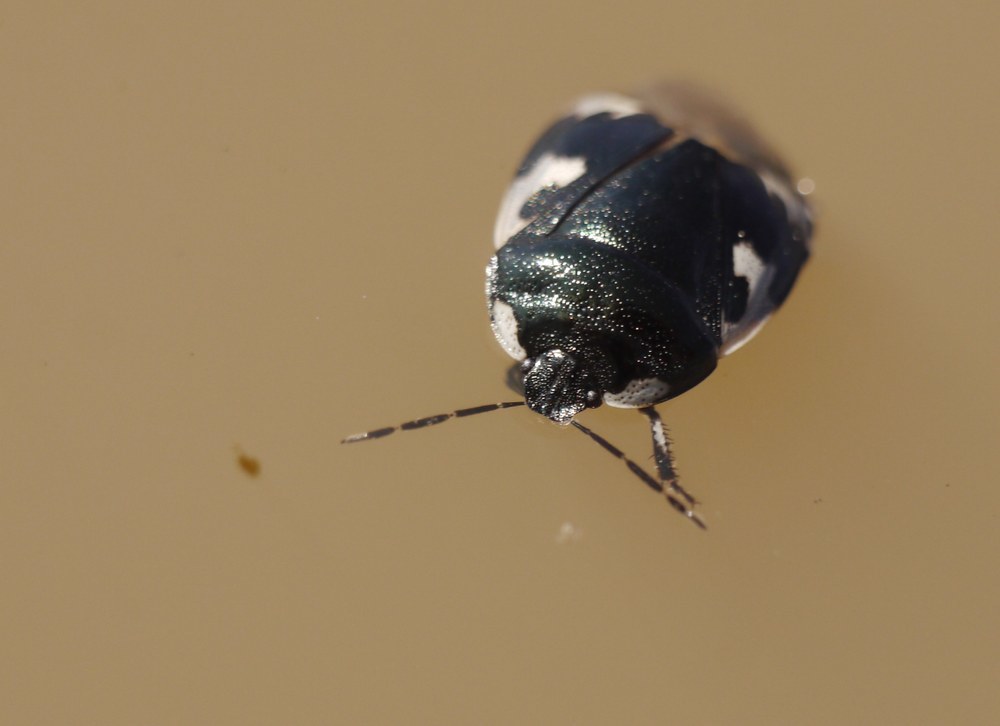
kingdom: Animalia
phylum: Arthropoda
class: Insecta
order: Hemiptera
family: Cydnidae
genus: Tritomegas
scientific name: Tritomegas bicolor
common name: Pied shieldbug
